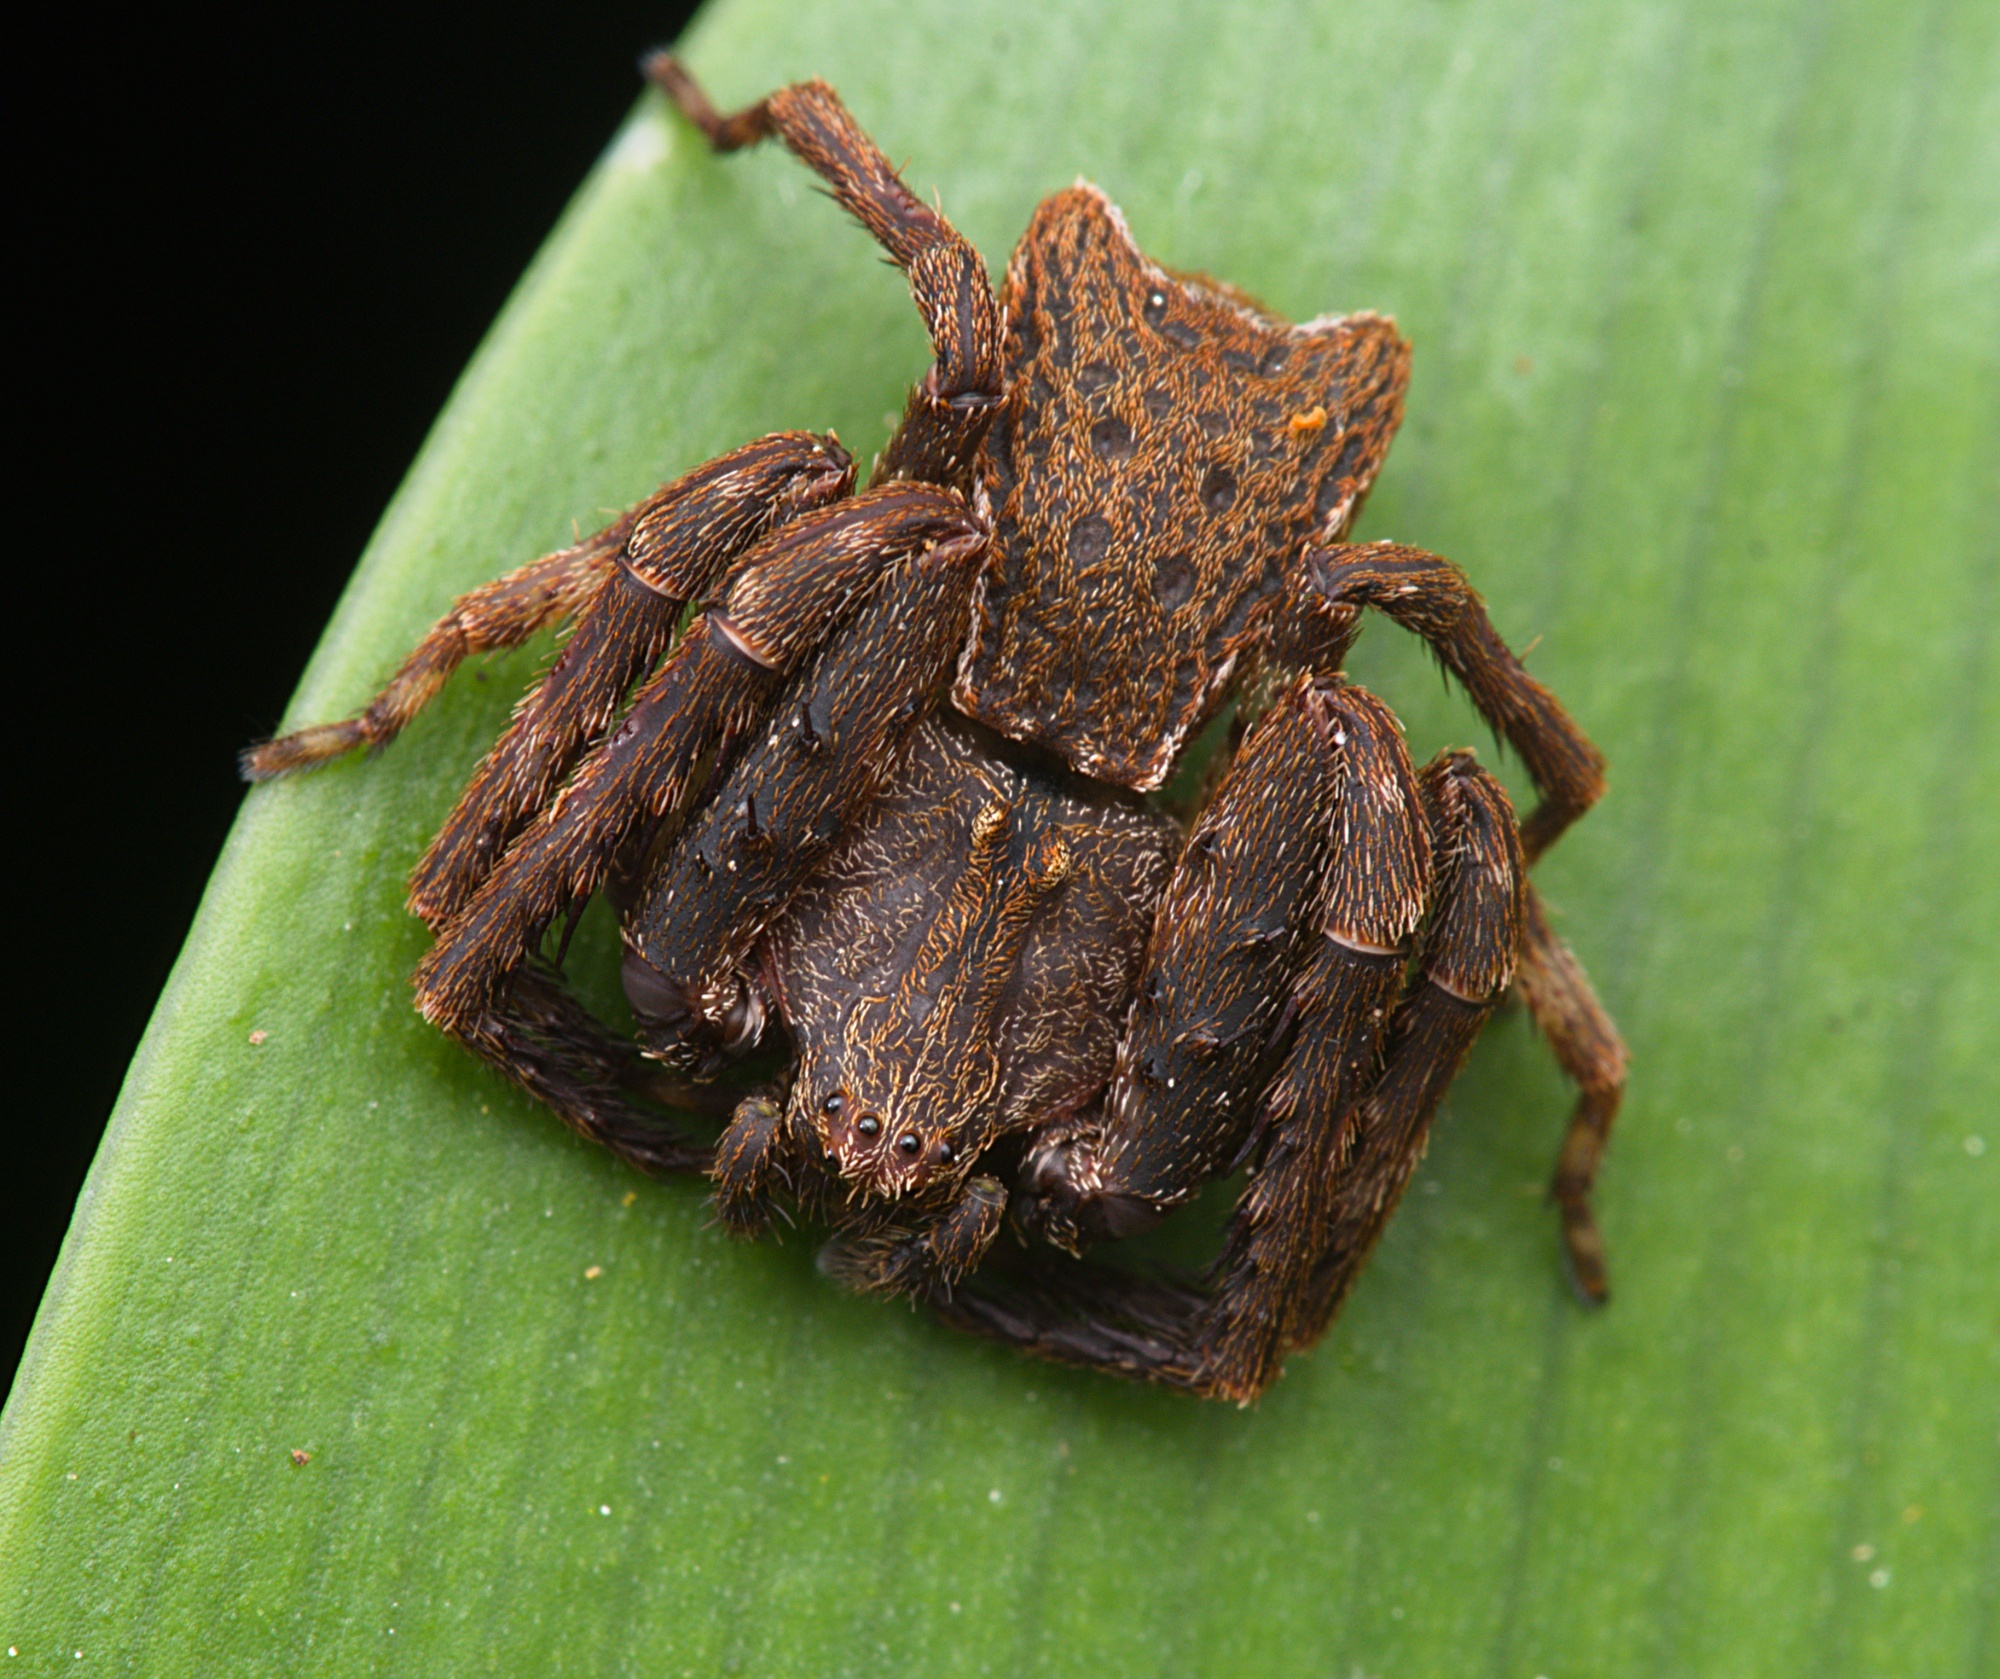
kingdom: Animalia
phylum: Arthropoda
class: Arachnida
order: Araneae
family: Thomisidae
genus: Sidymella
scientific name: Sidymella angularis
